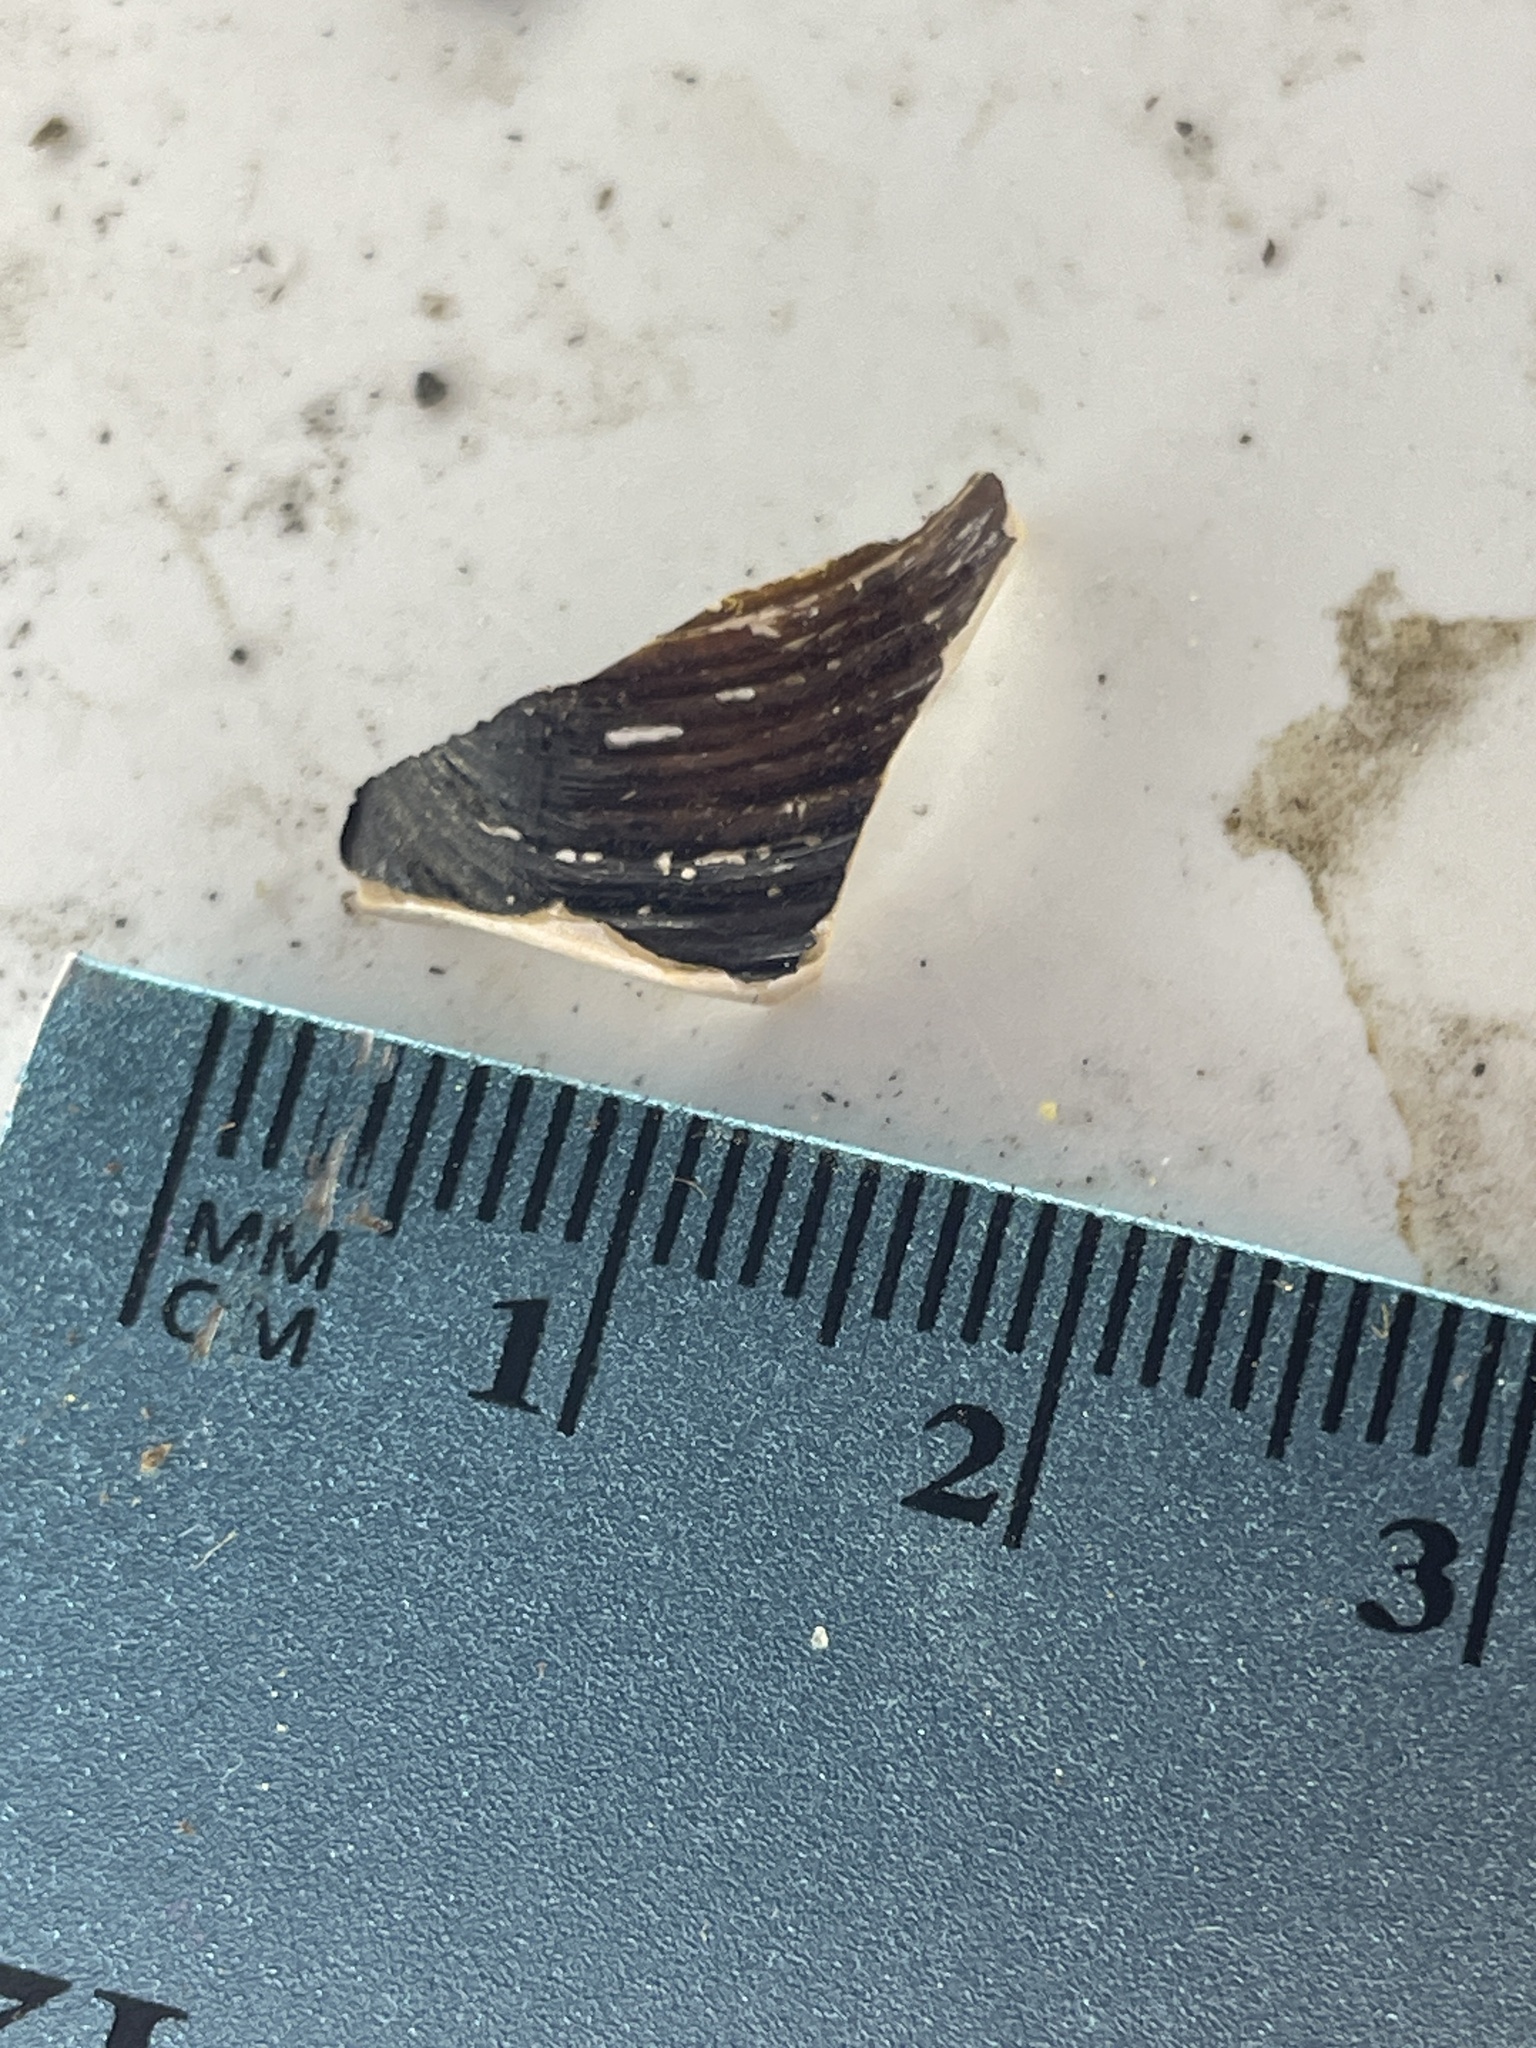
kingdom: Animalia
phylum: Mollusca
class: Bivalvia
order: Venerida
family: Cyrenidae
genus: Corbicula
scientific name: Corbicula fluminea
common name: Asian clam
